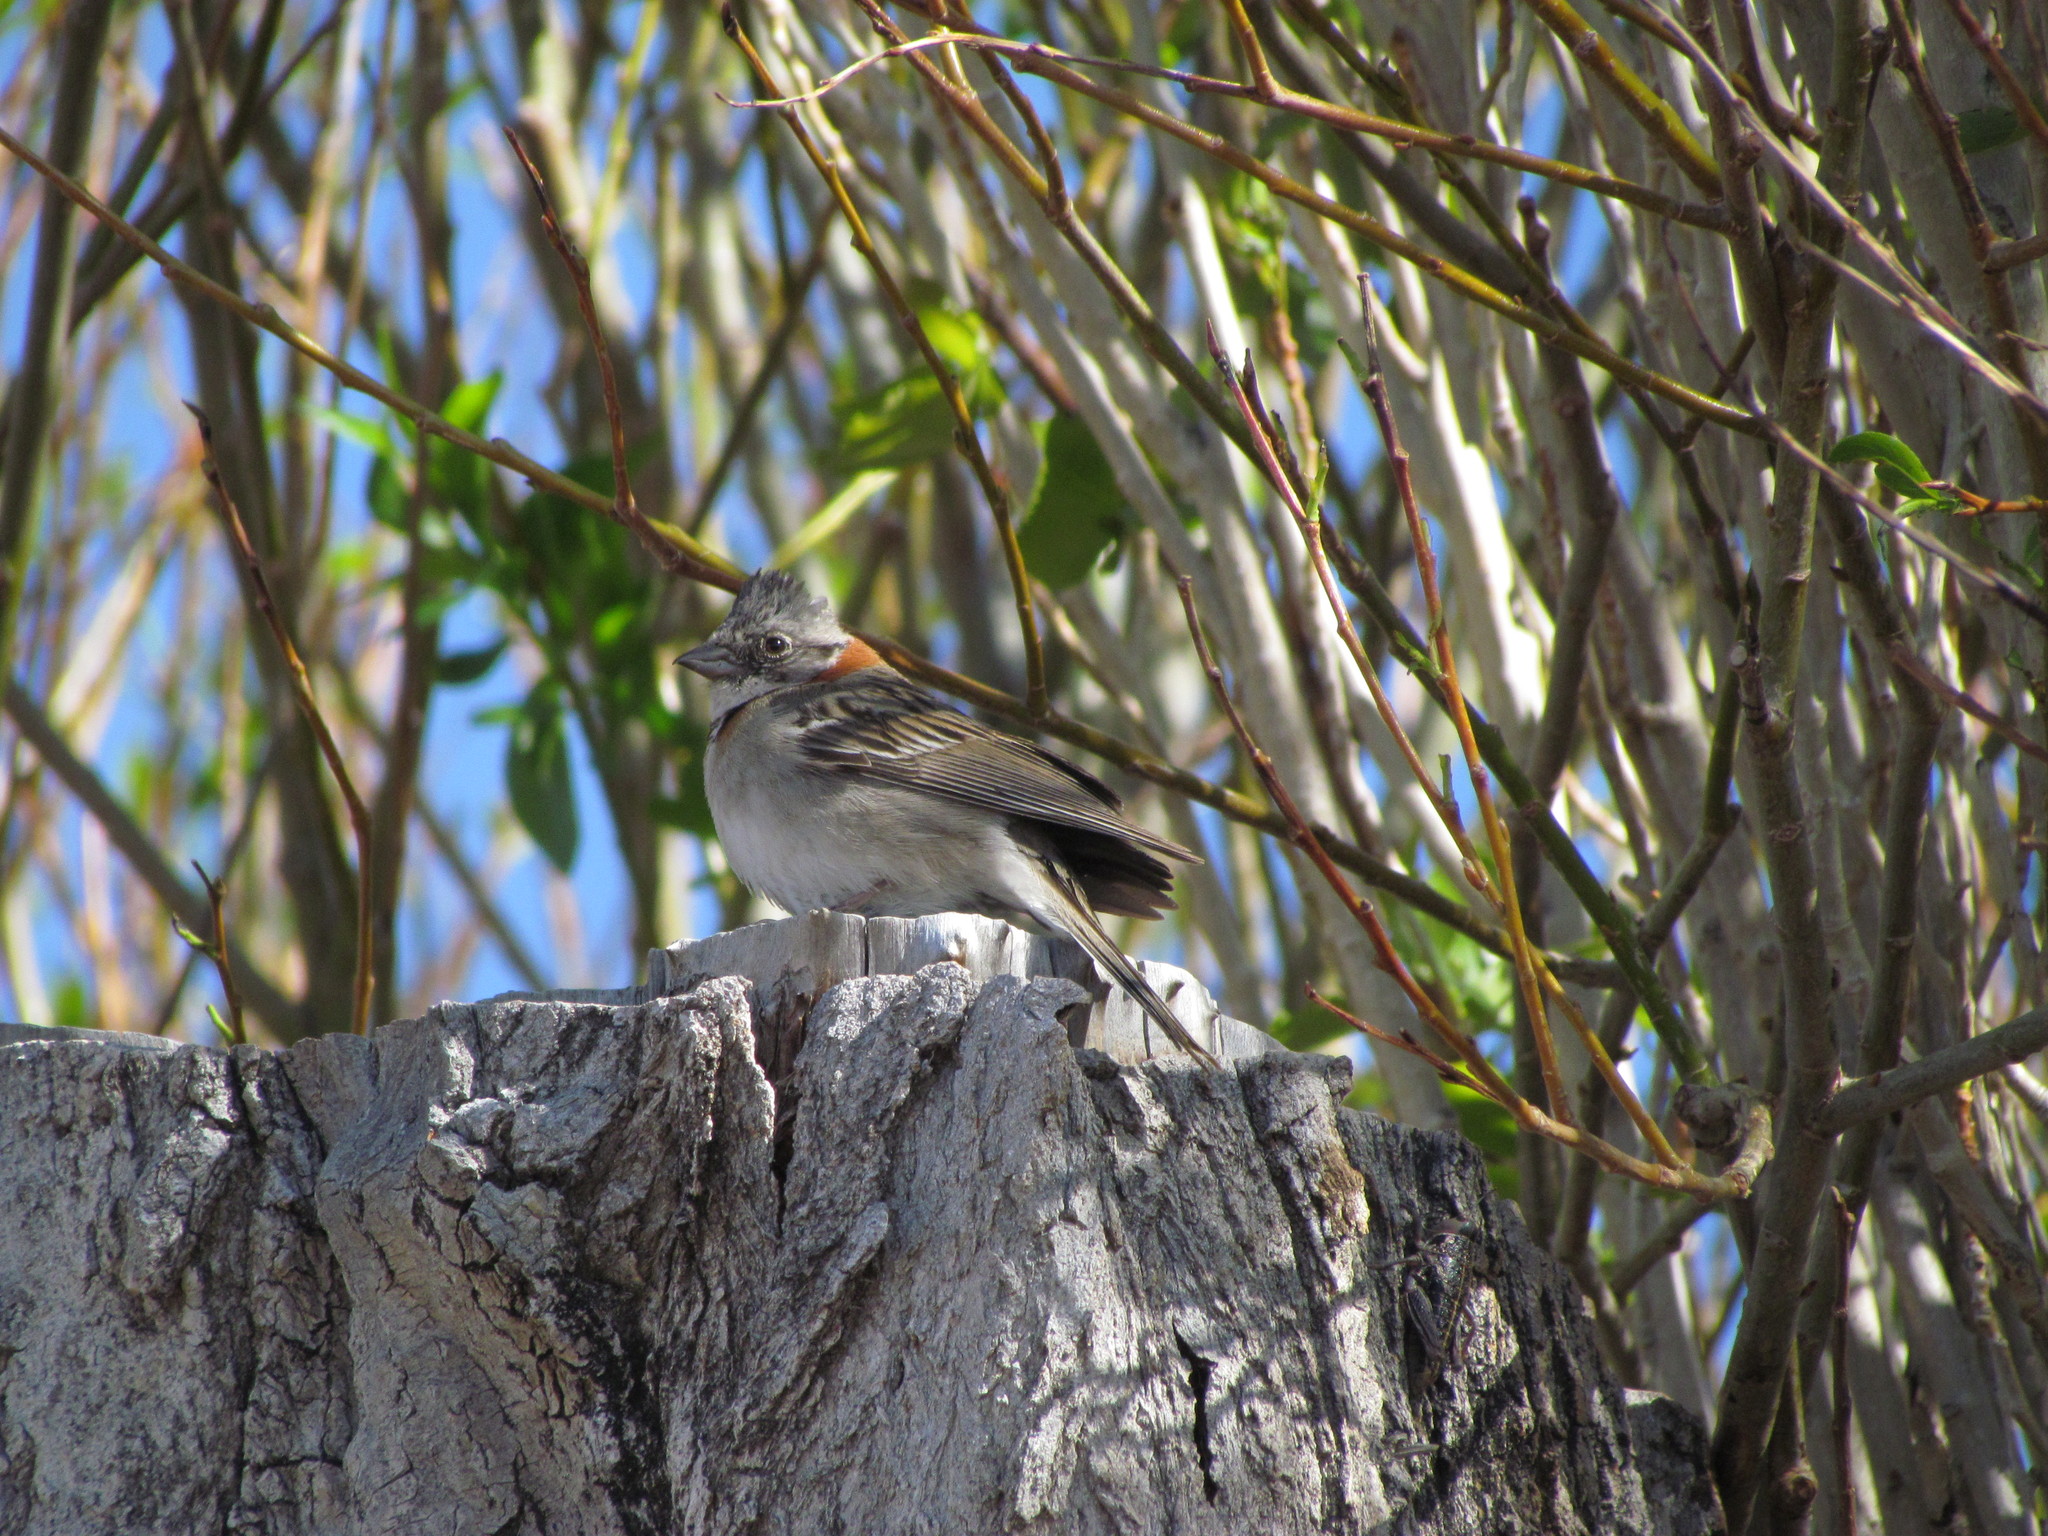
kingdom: Animalia
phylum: Chordata
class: Aves
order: Passeriformes
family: Passerellidae
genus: Zonotrichia
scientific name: Zonotrichia capensis
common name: Rufous-collared sparrow
